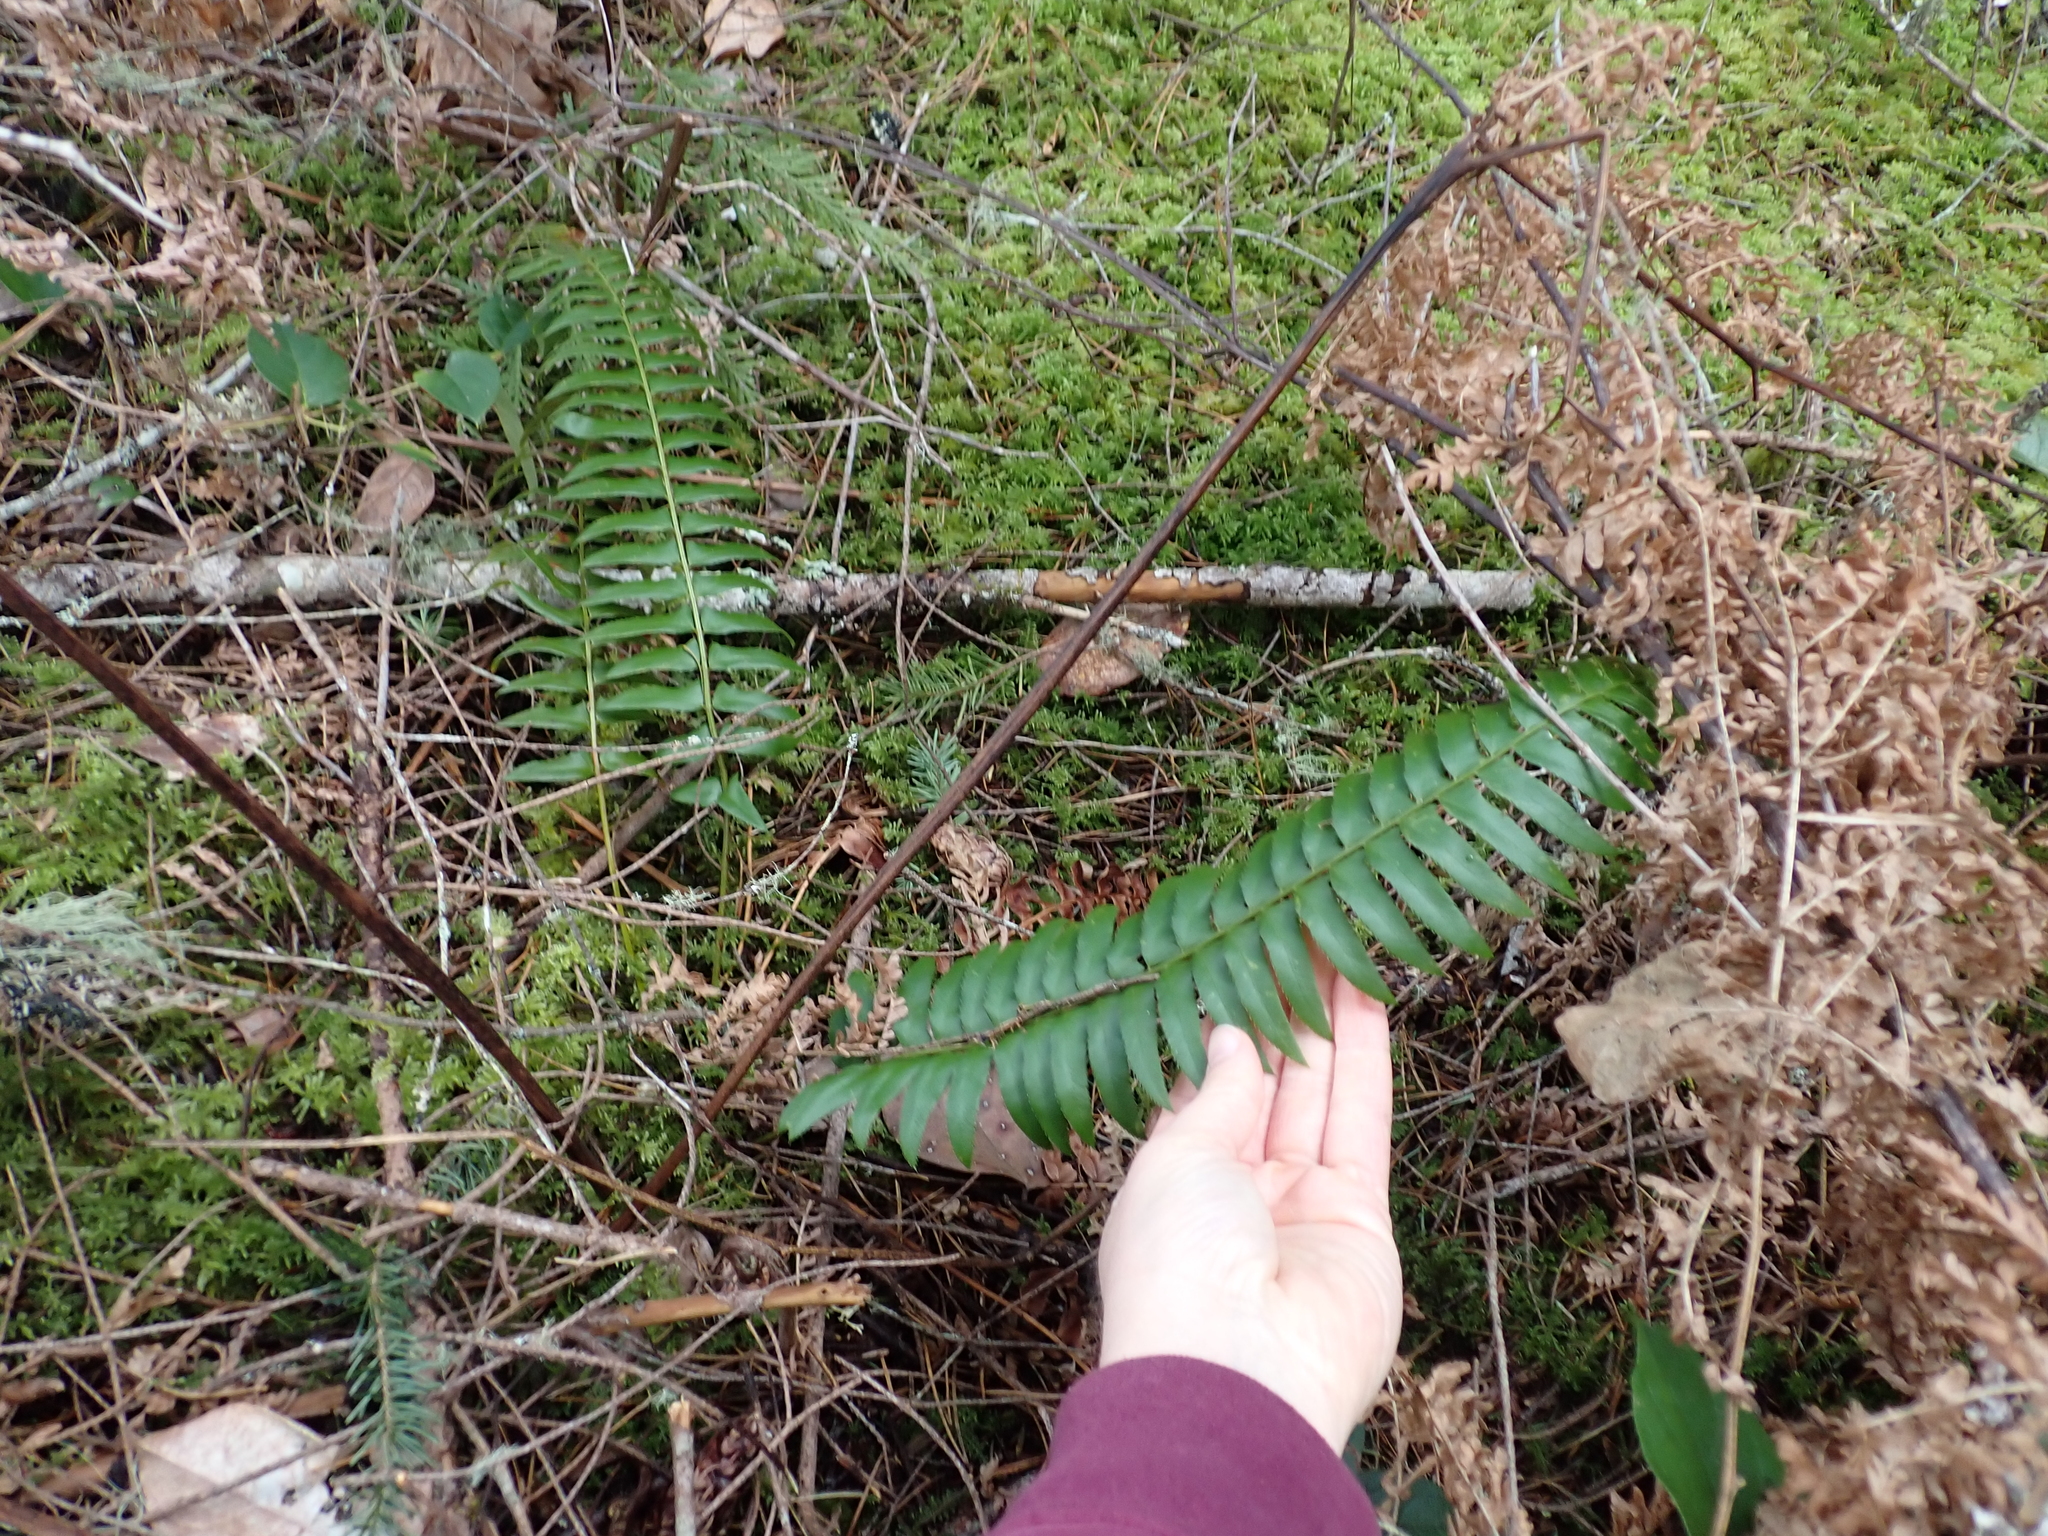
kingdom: Plantae
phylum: Tracheophyta
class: Polypodiopsida
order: Polypodiales
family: Dryopteridaceae
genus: Polystichum
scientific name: Polystichum munitum
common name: Western sword-fern
